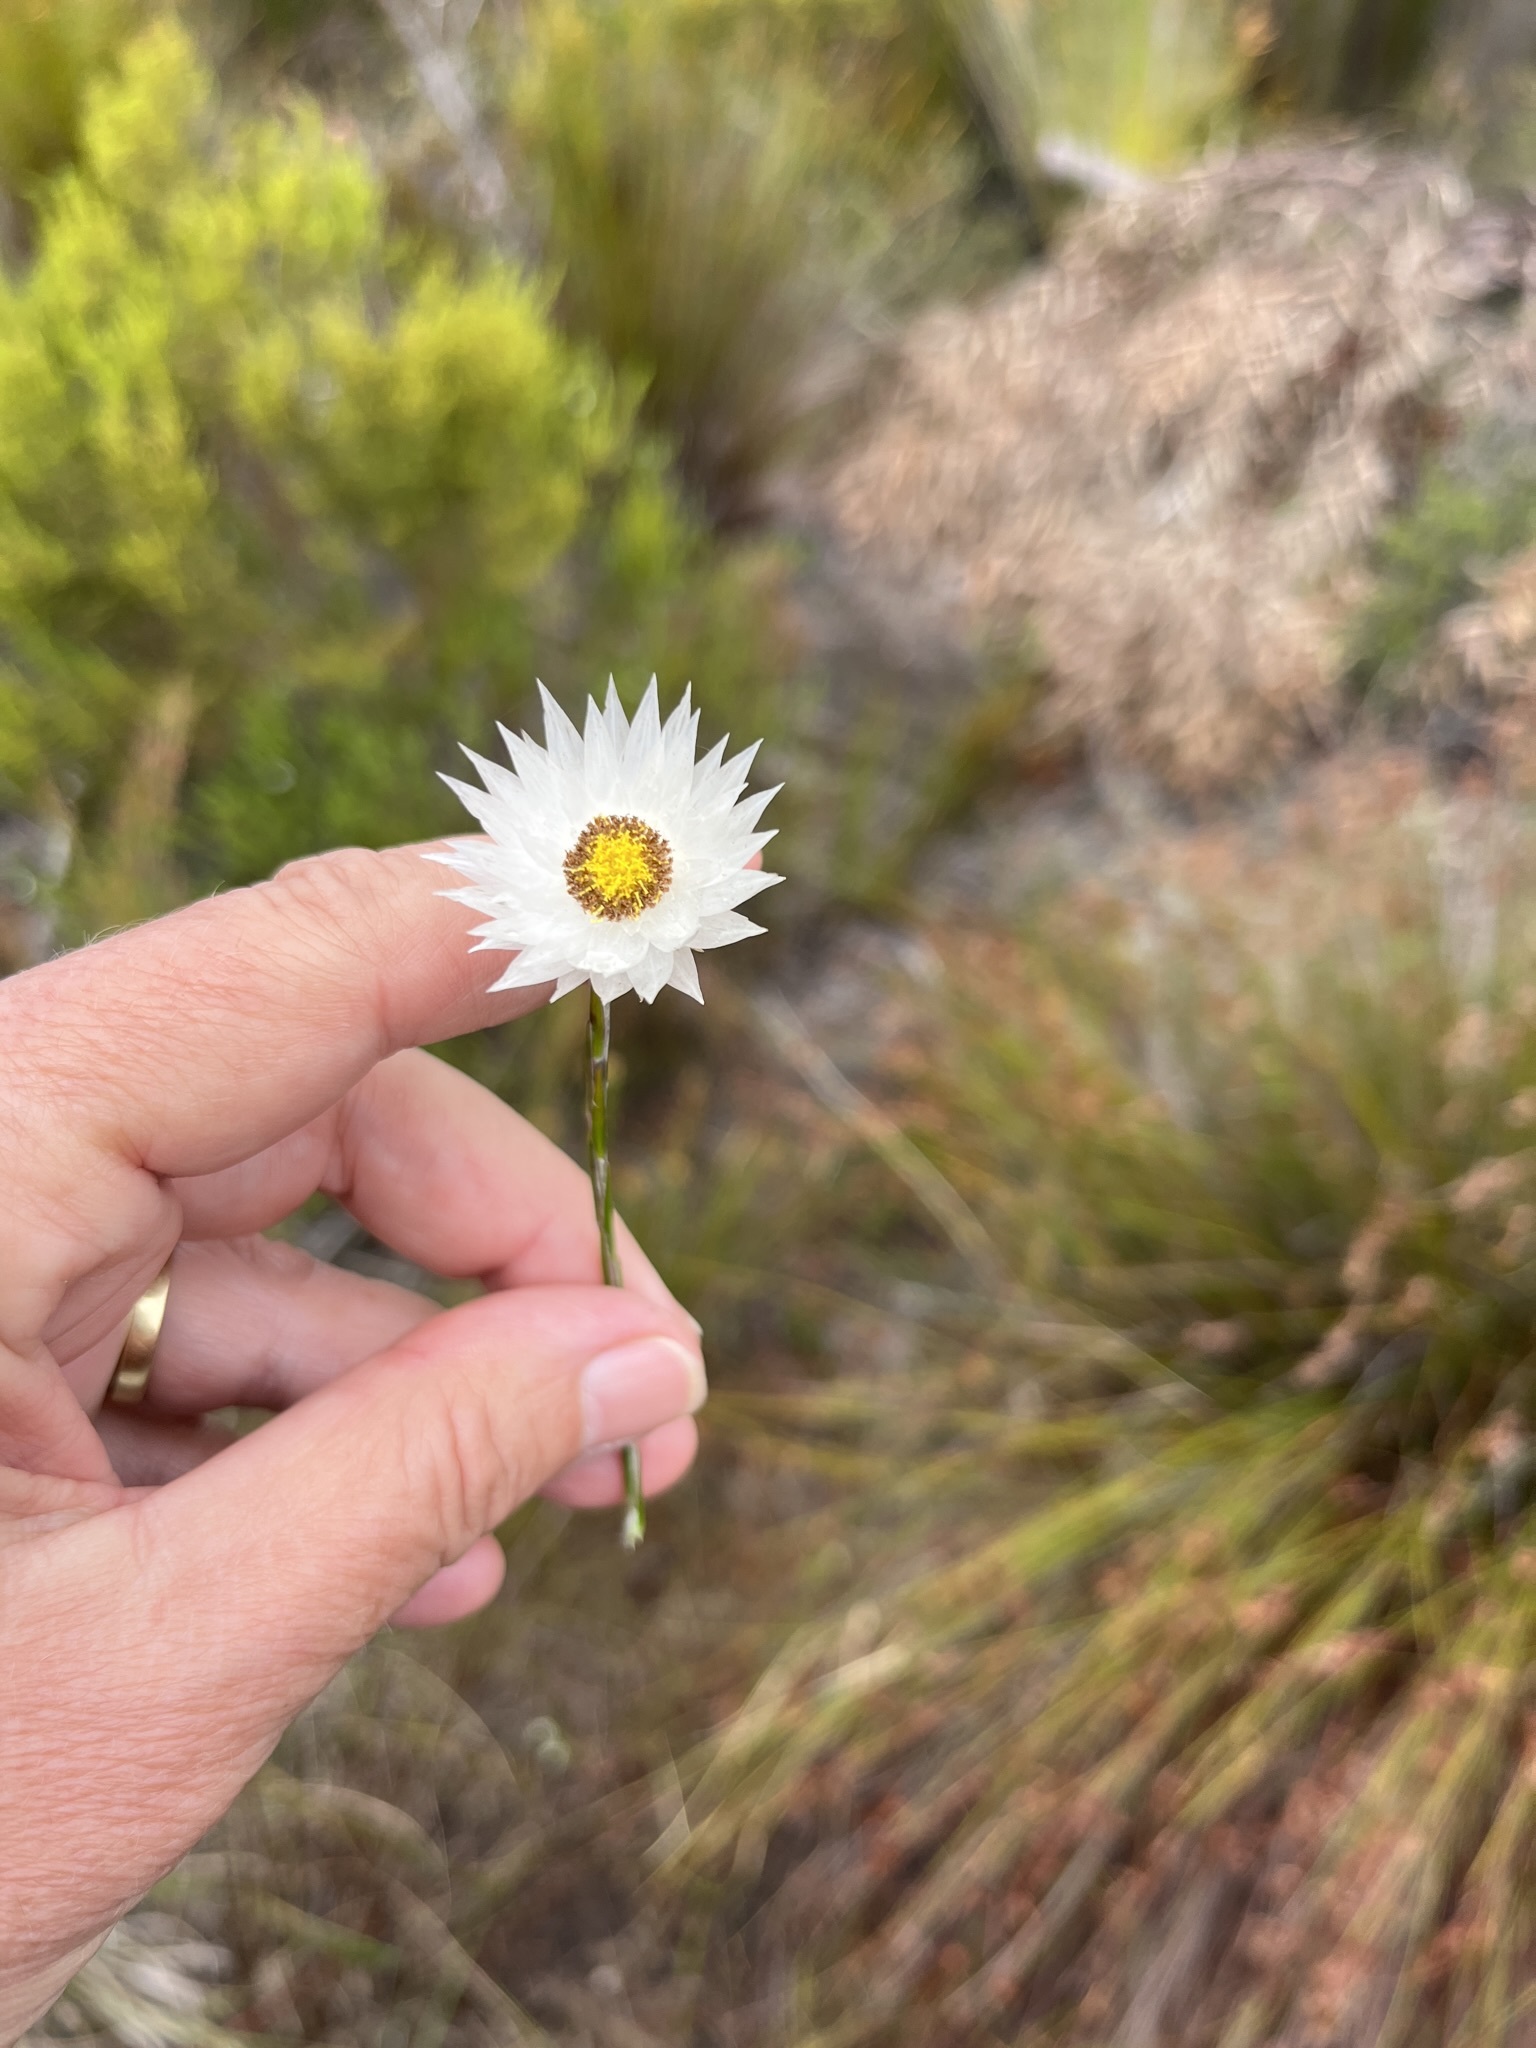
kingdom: Plantae
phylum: Tracheophyta
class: Magnoliopsida
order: Asterales
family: Asteraceae
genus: Edmondia
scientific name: Edmondia sesamoides
